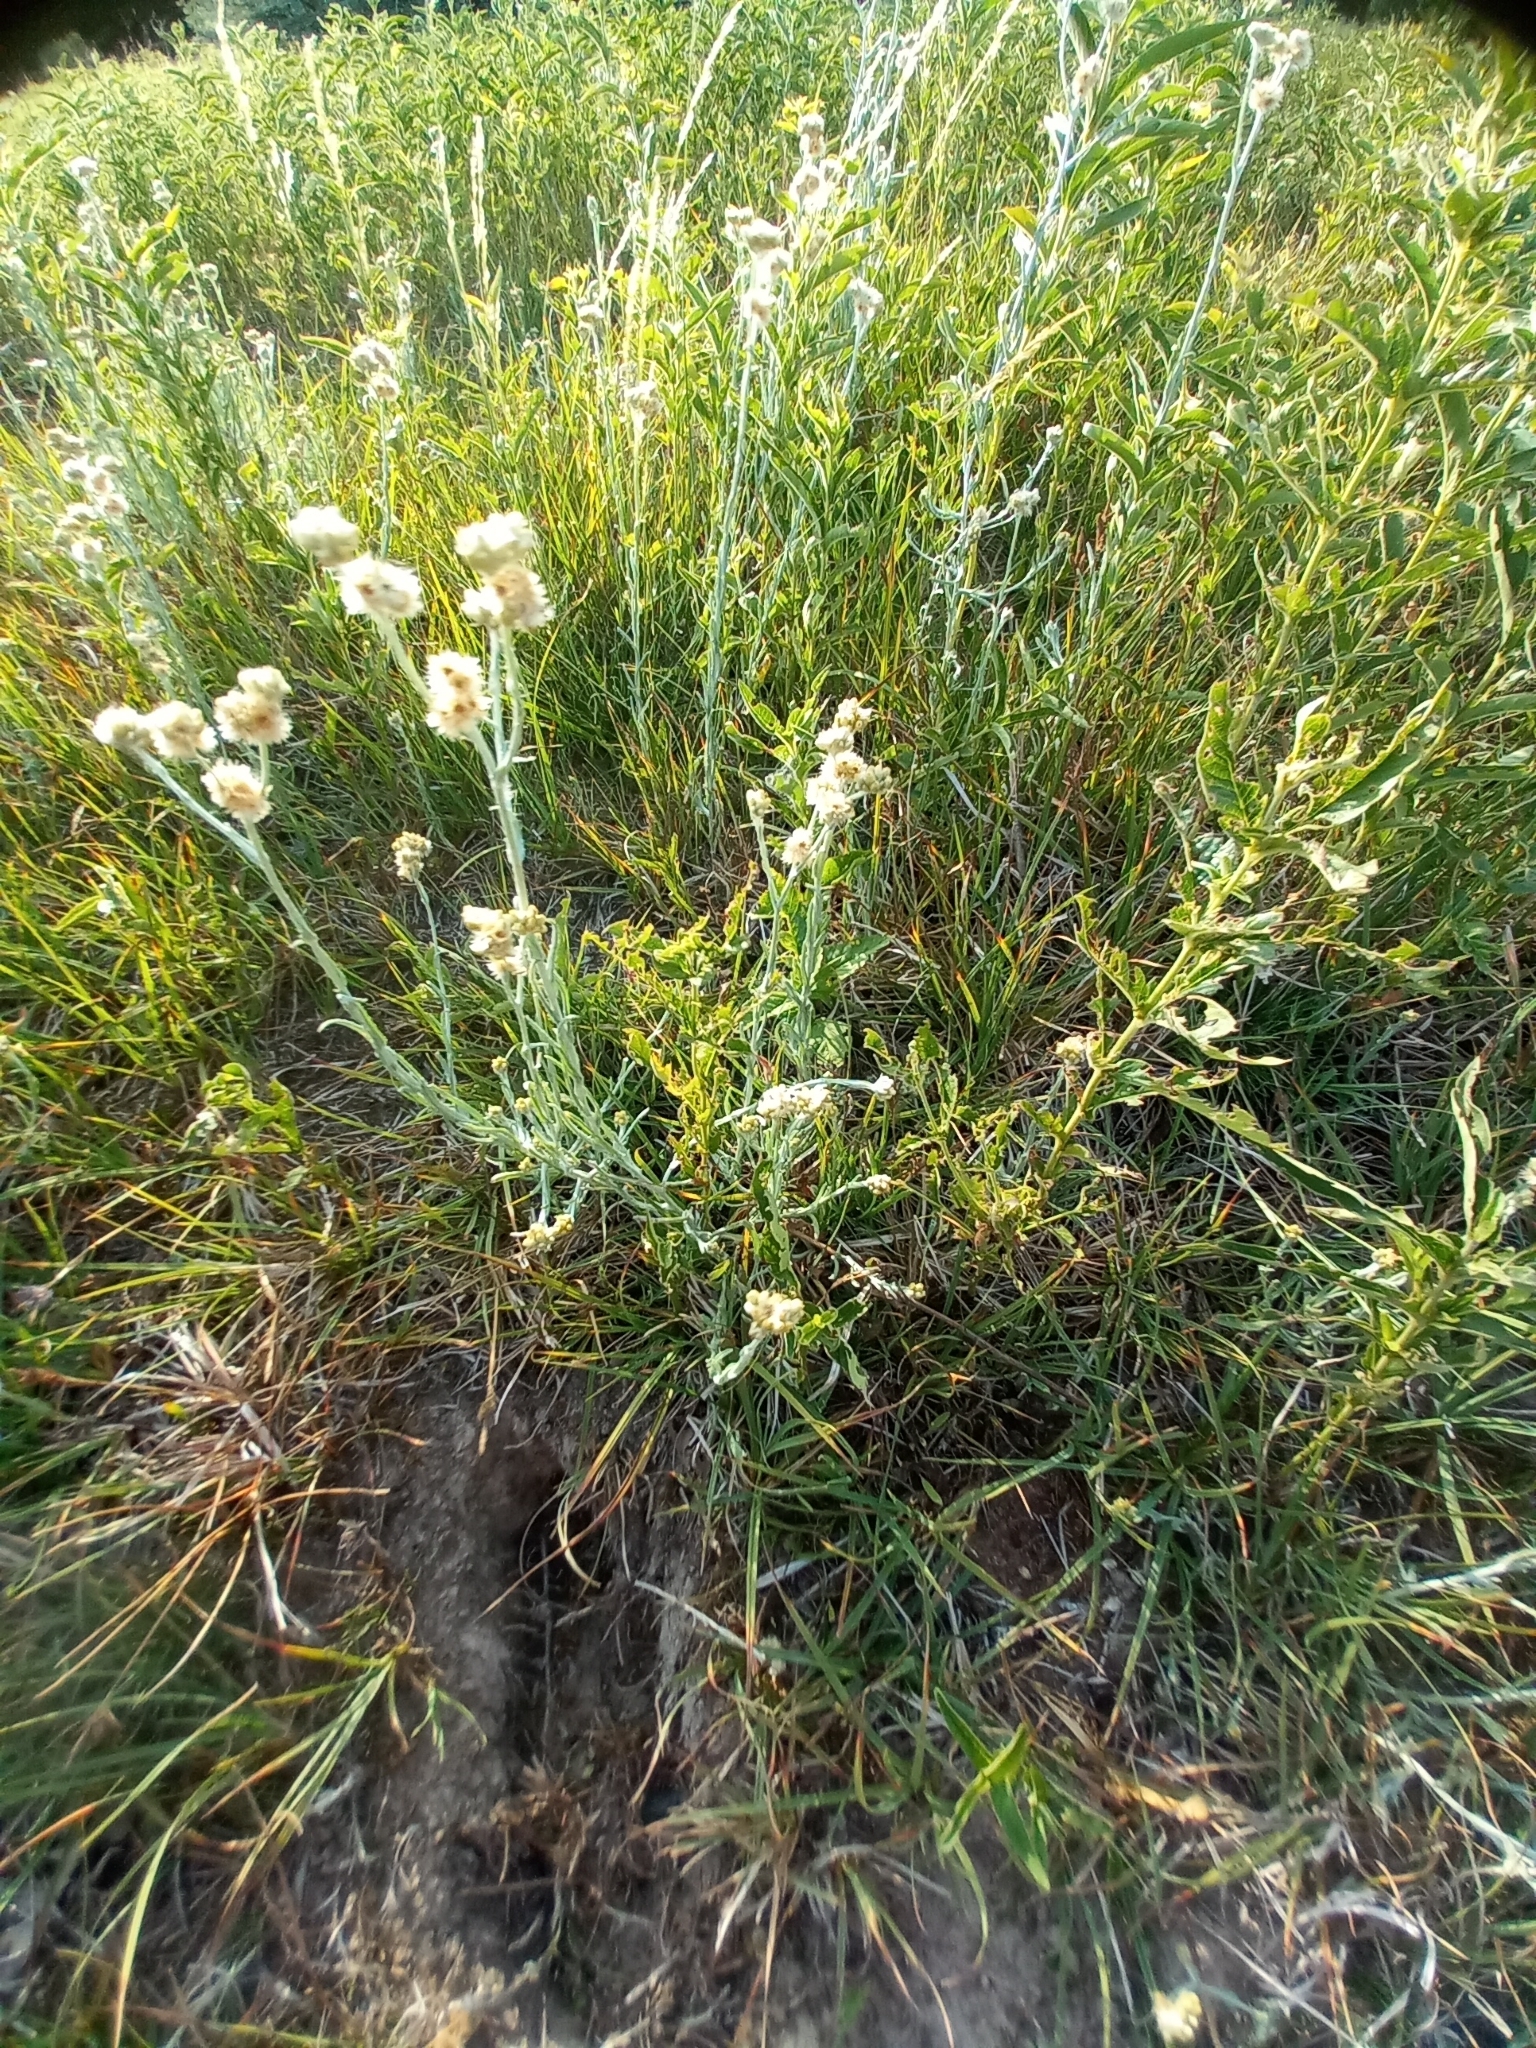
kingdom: Plantae
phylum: Tracheophyta
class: Magnoliopsida
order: Asterales
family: Asteraceae
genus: Helichrysum
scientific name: Helichrysum luteoalbum
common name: Daisy
